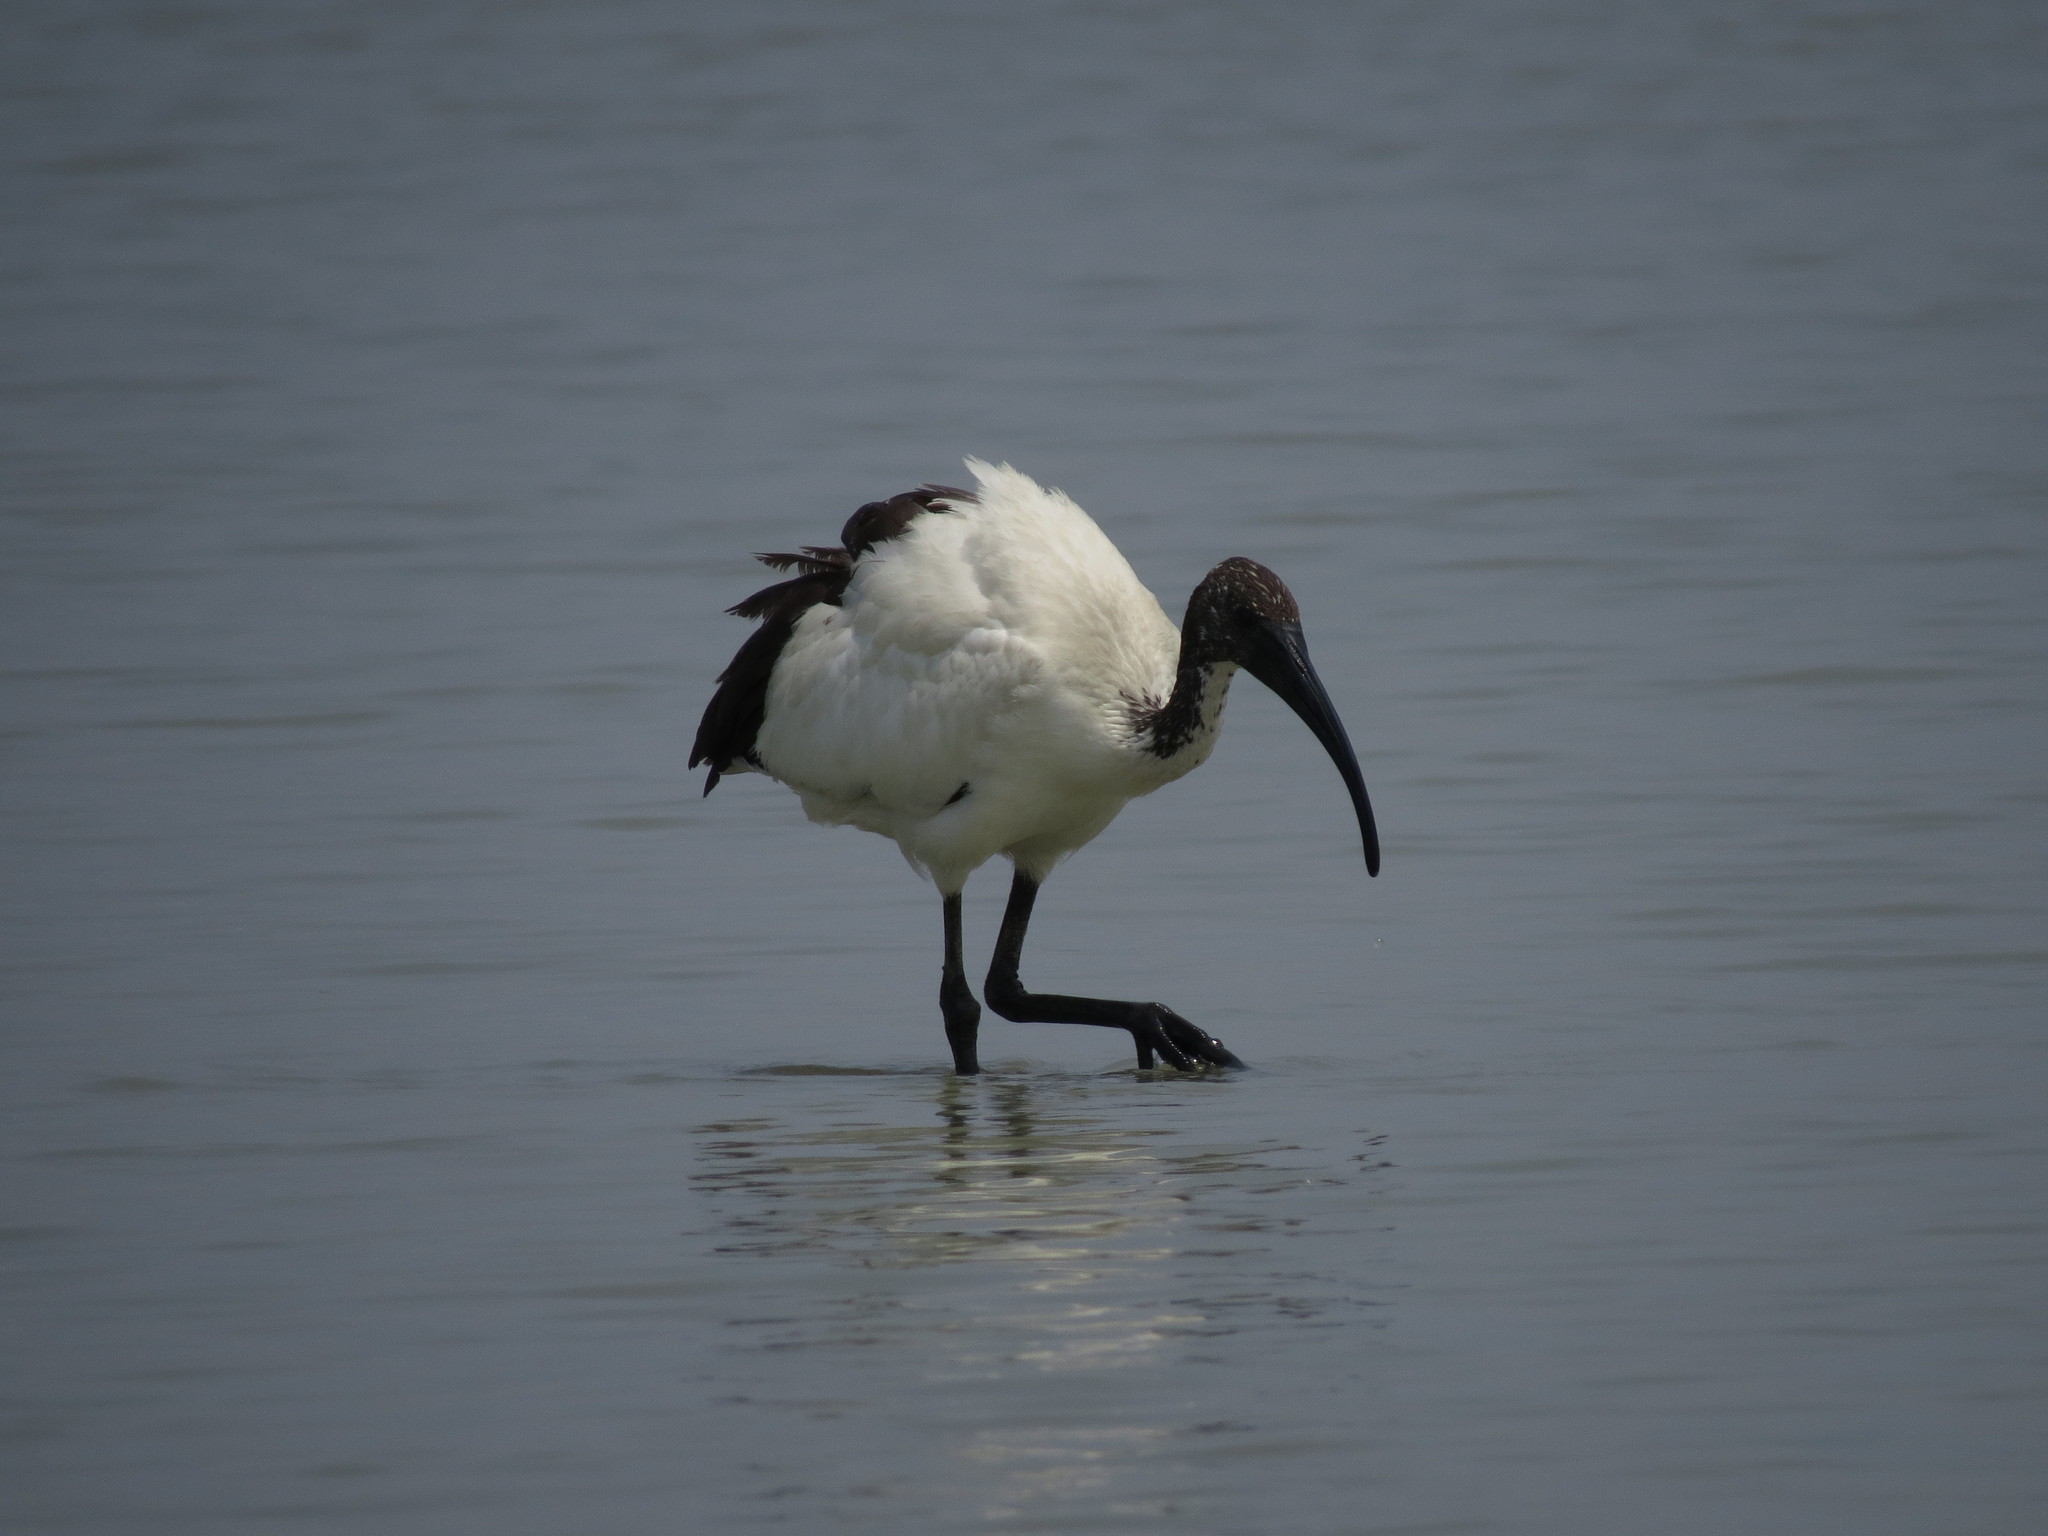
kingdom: Animalia
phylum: Chordata
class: Aves
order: Pelecaniformes
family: Threskiornithidae
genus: Threskiornis
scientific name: Threskiornis aethiopicus
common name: Sacred ibis
